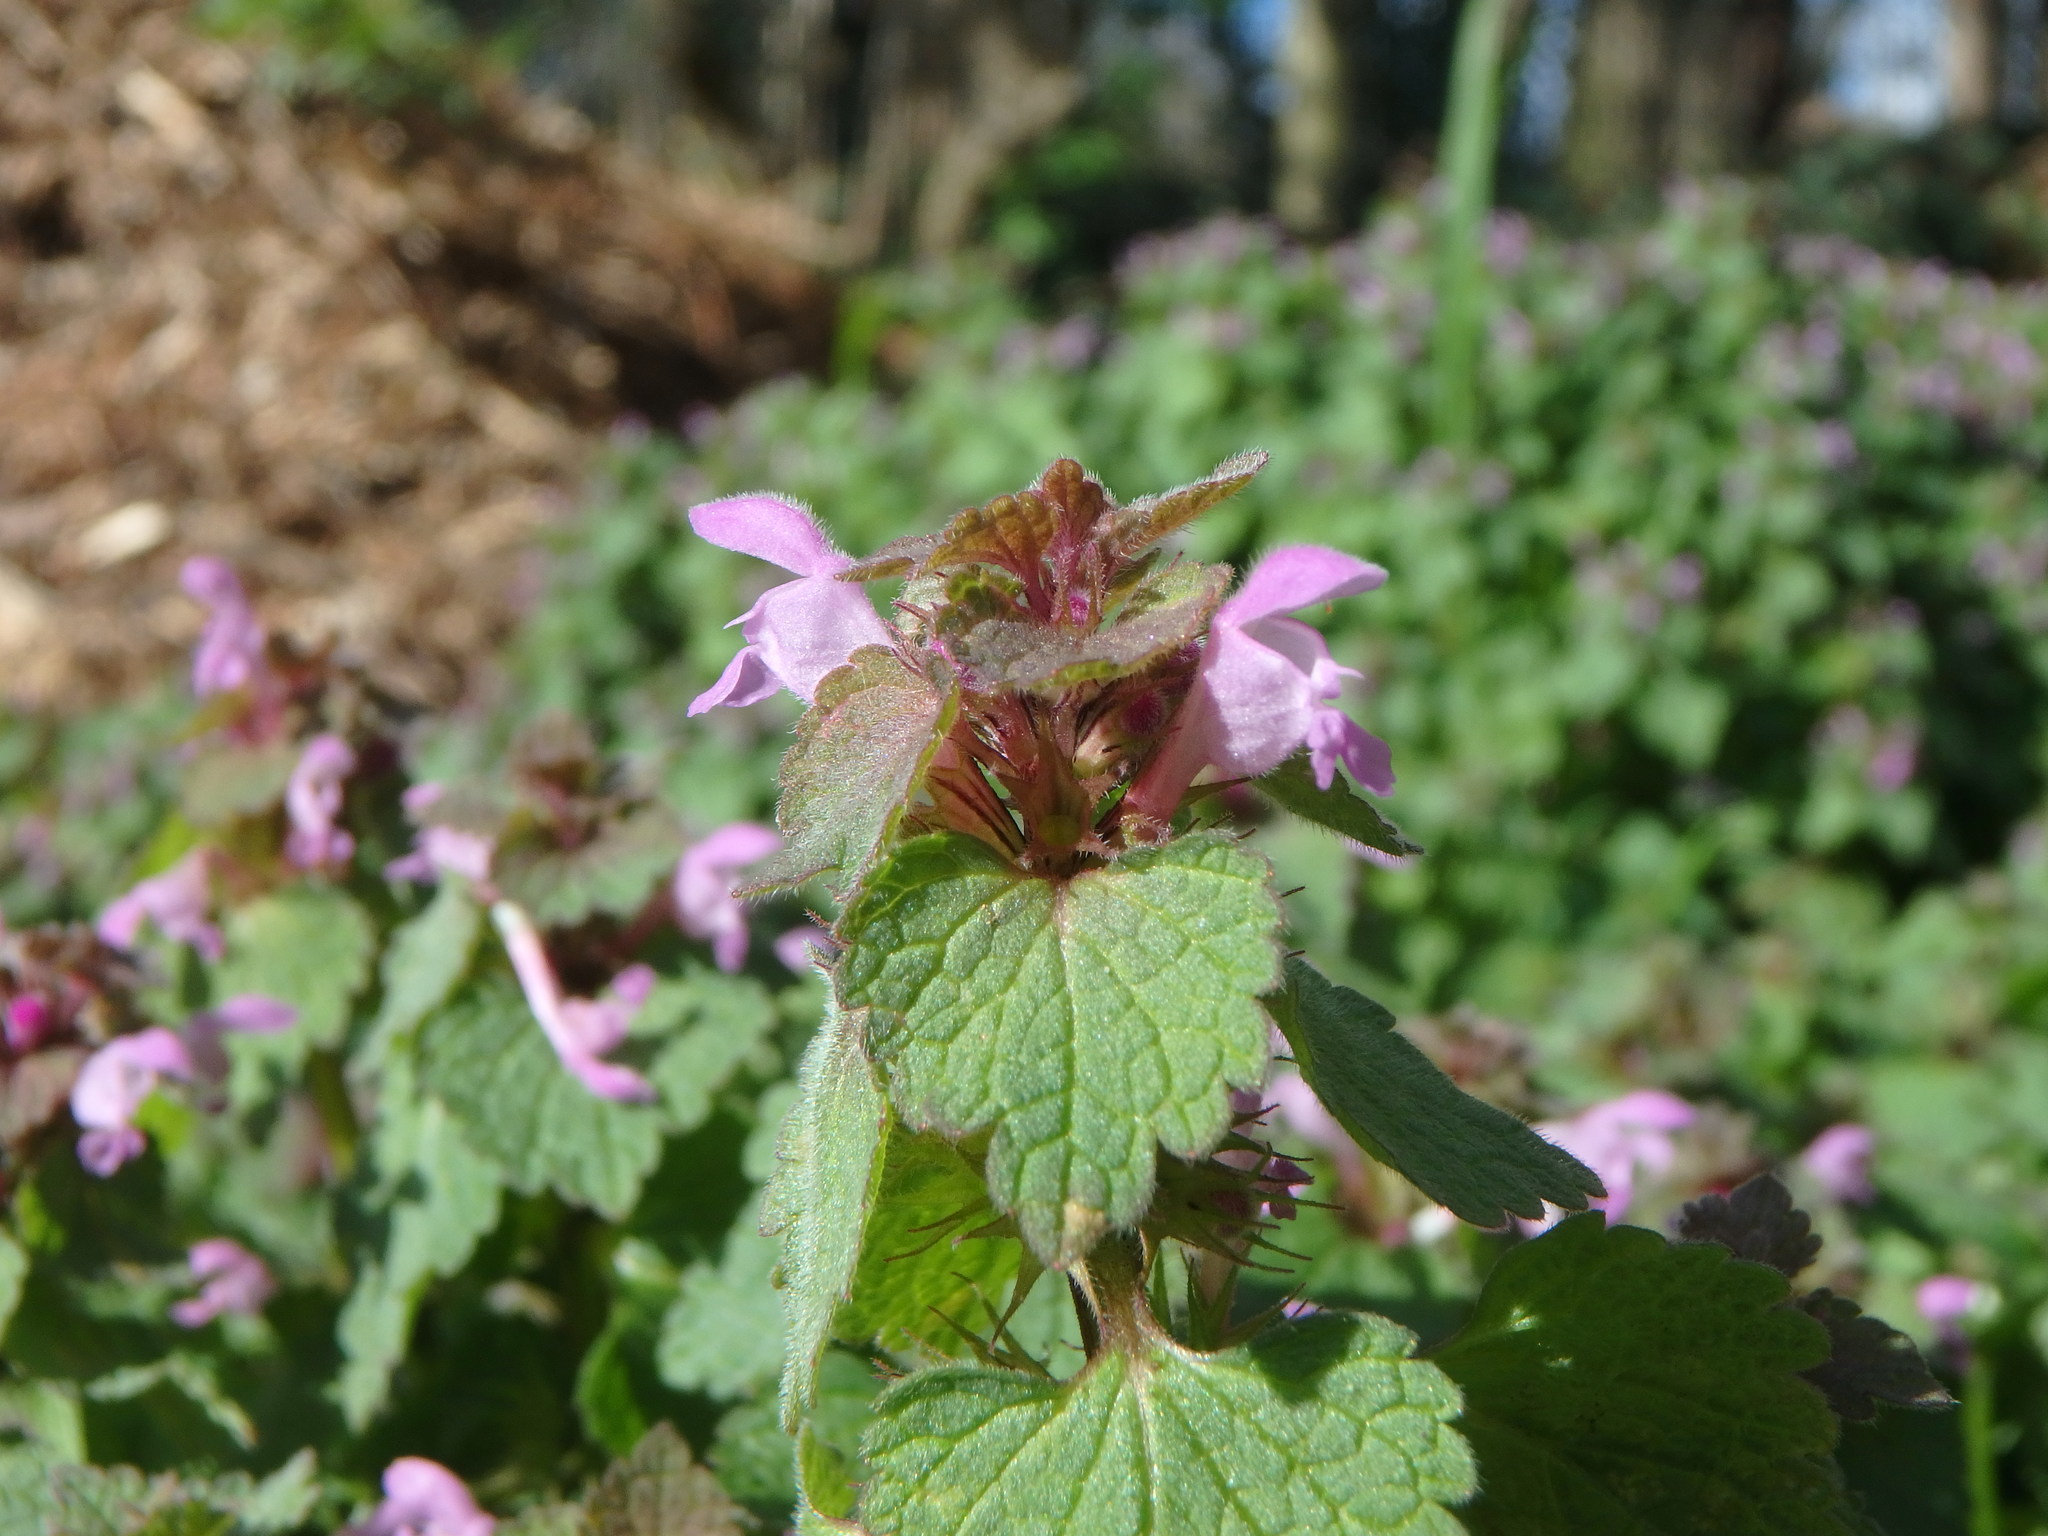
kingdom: Plantae
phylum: Tracheophyta
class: Magnoliopsida
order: Lamiales
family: Lamiaceae
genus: Lamium
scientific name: Lamium purpureum
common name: Red dead-nettle
